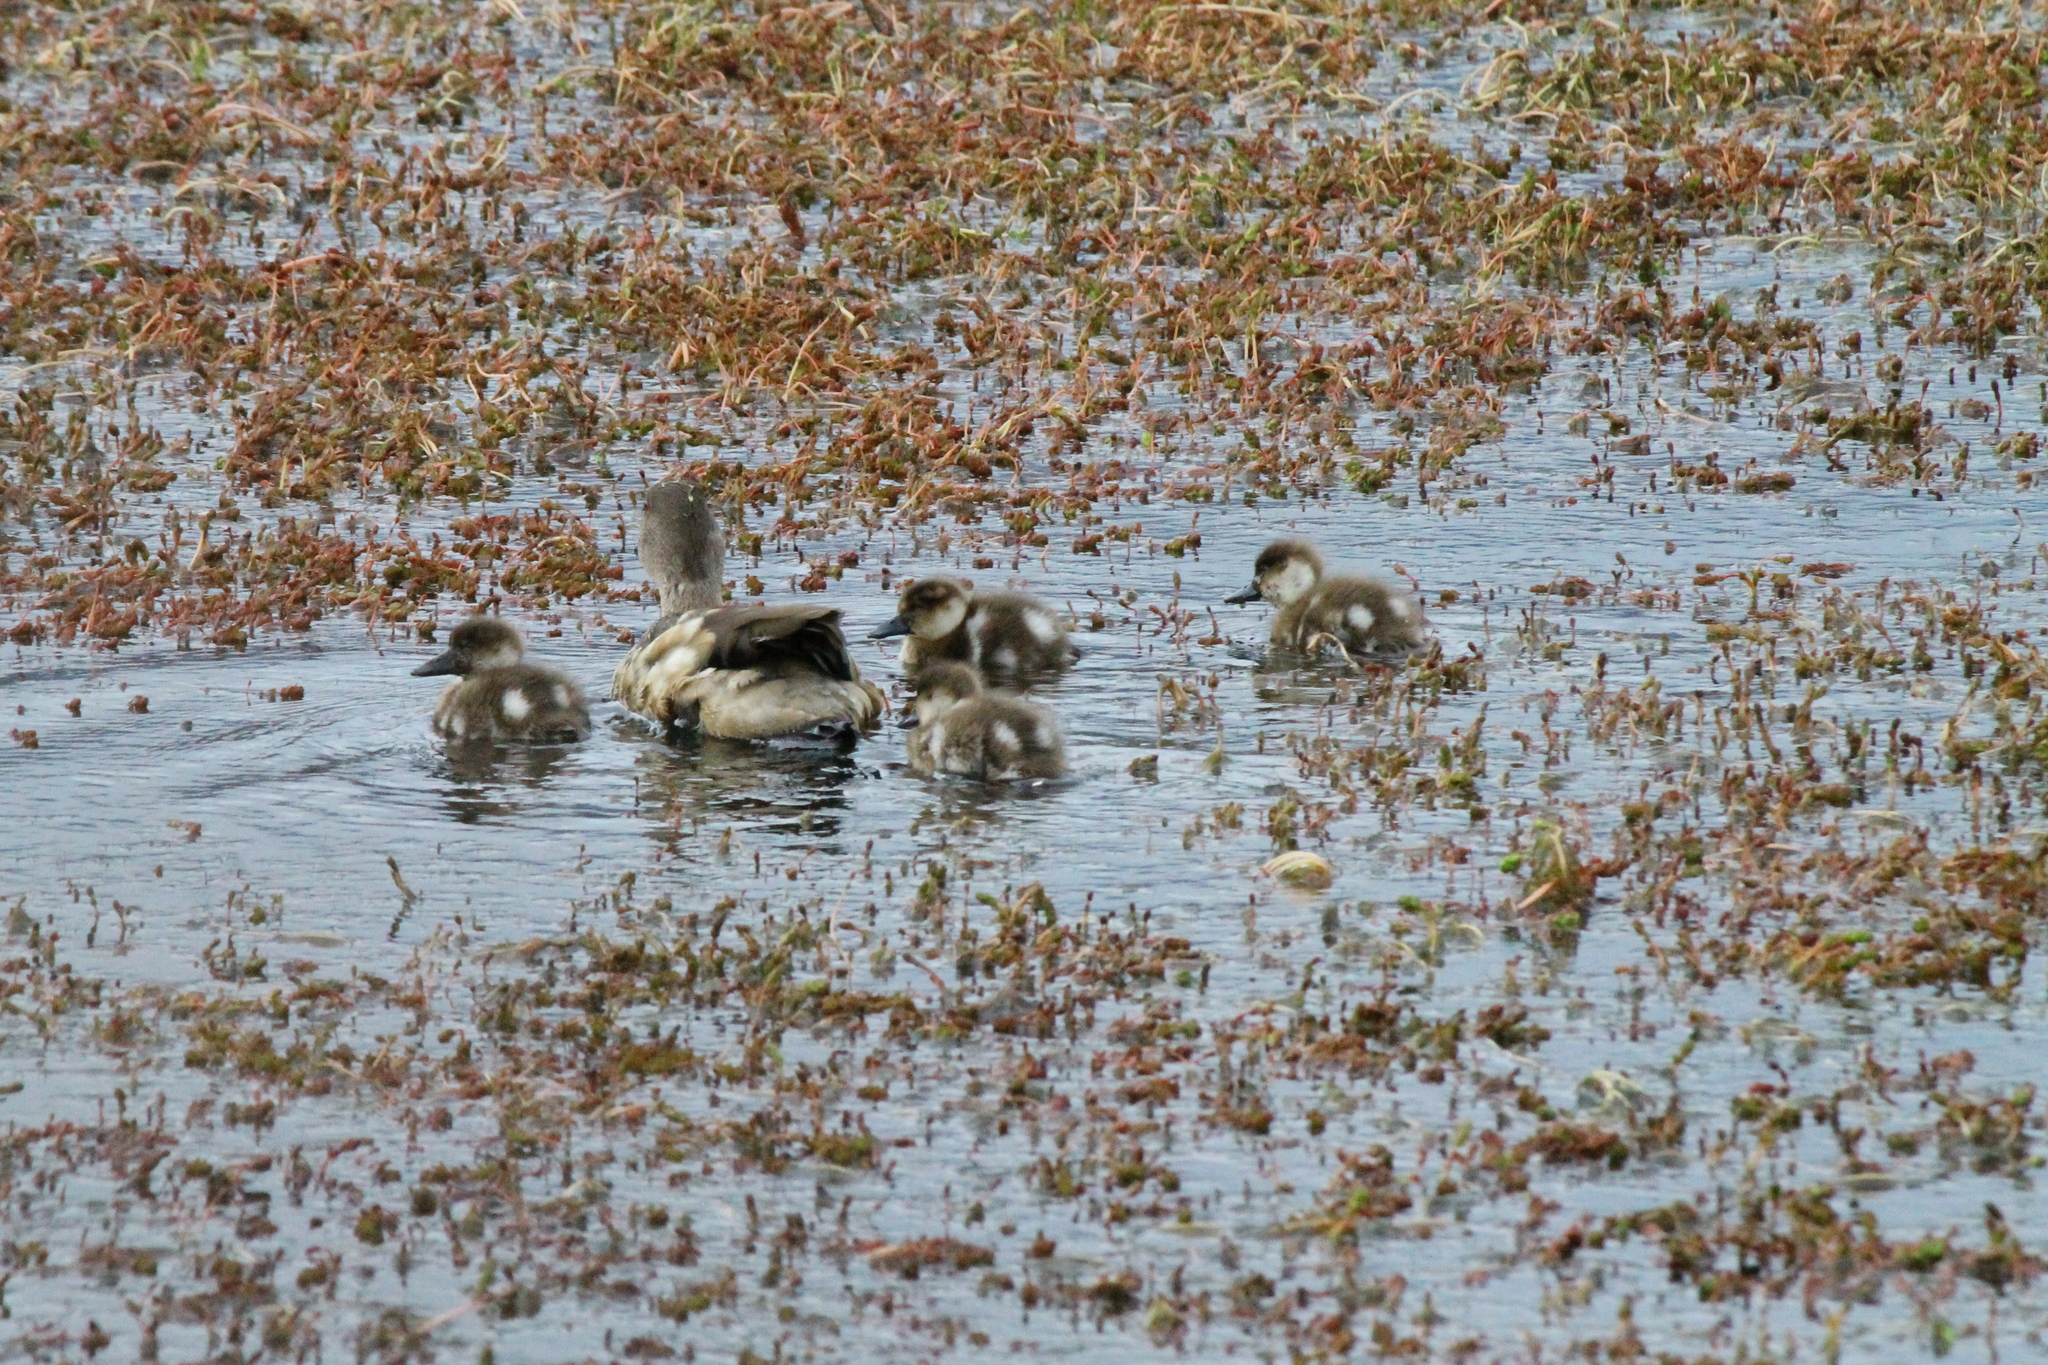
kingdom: Animalia
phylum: Chordata
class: Aves
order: Anseriformes
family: Anatidae
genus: Lophonetta
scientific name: Lophonetta specularioides
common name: Crested duck
